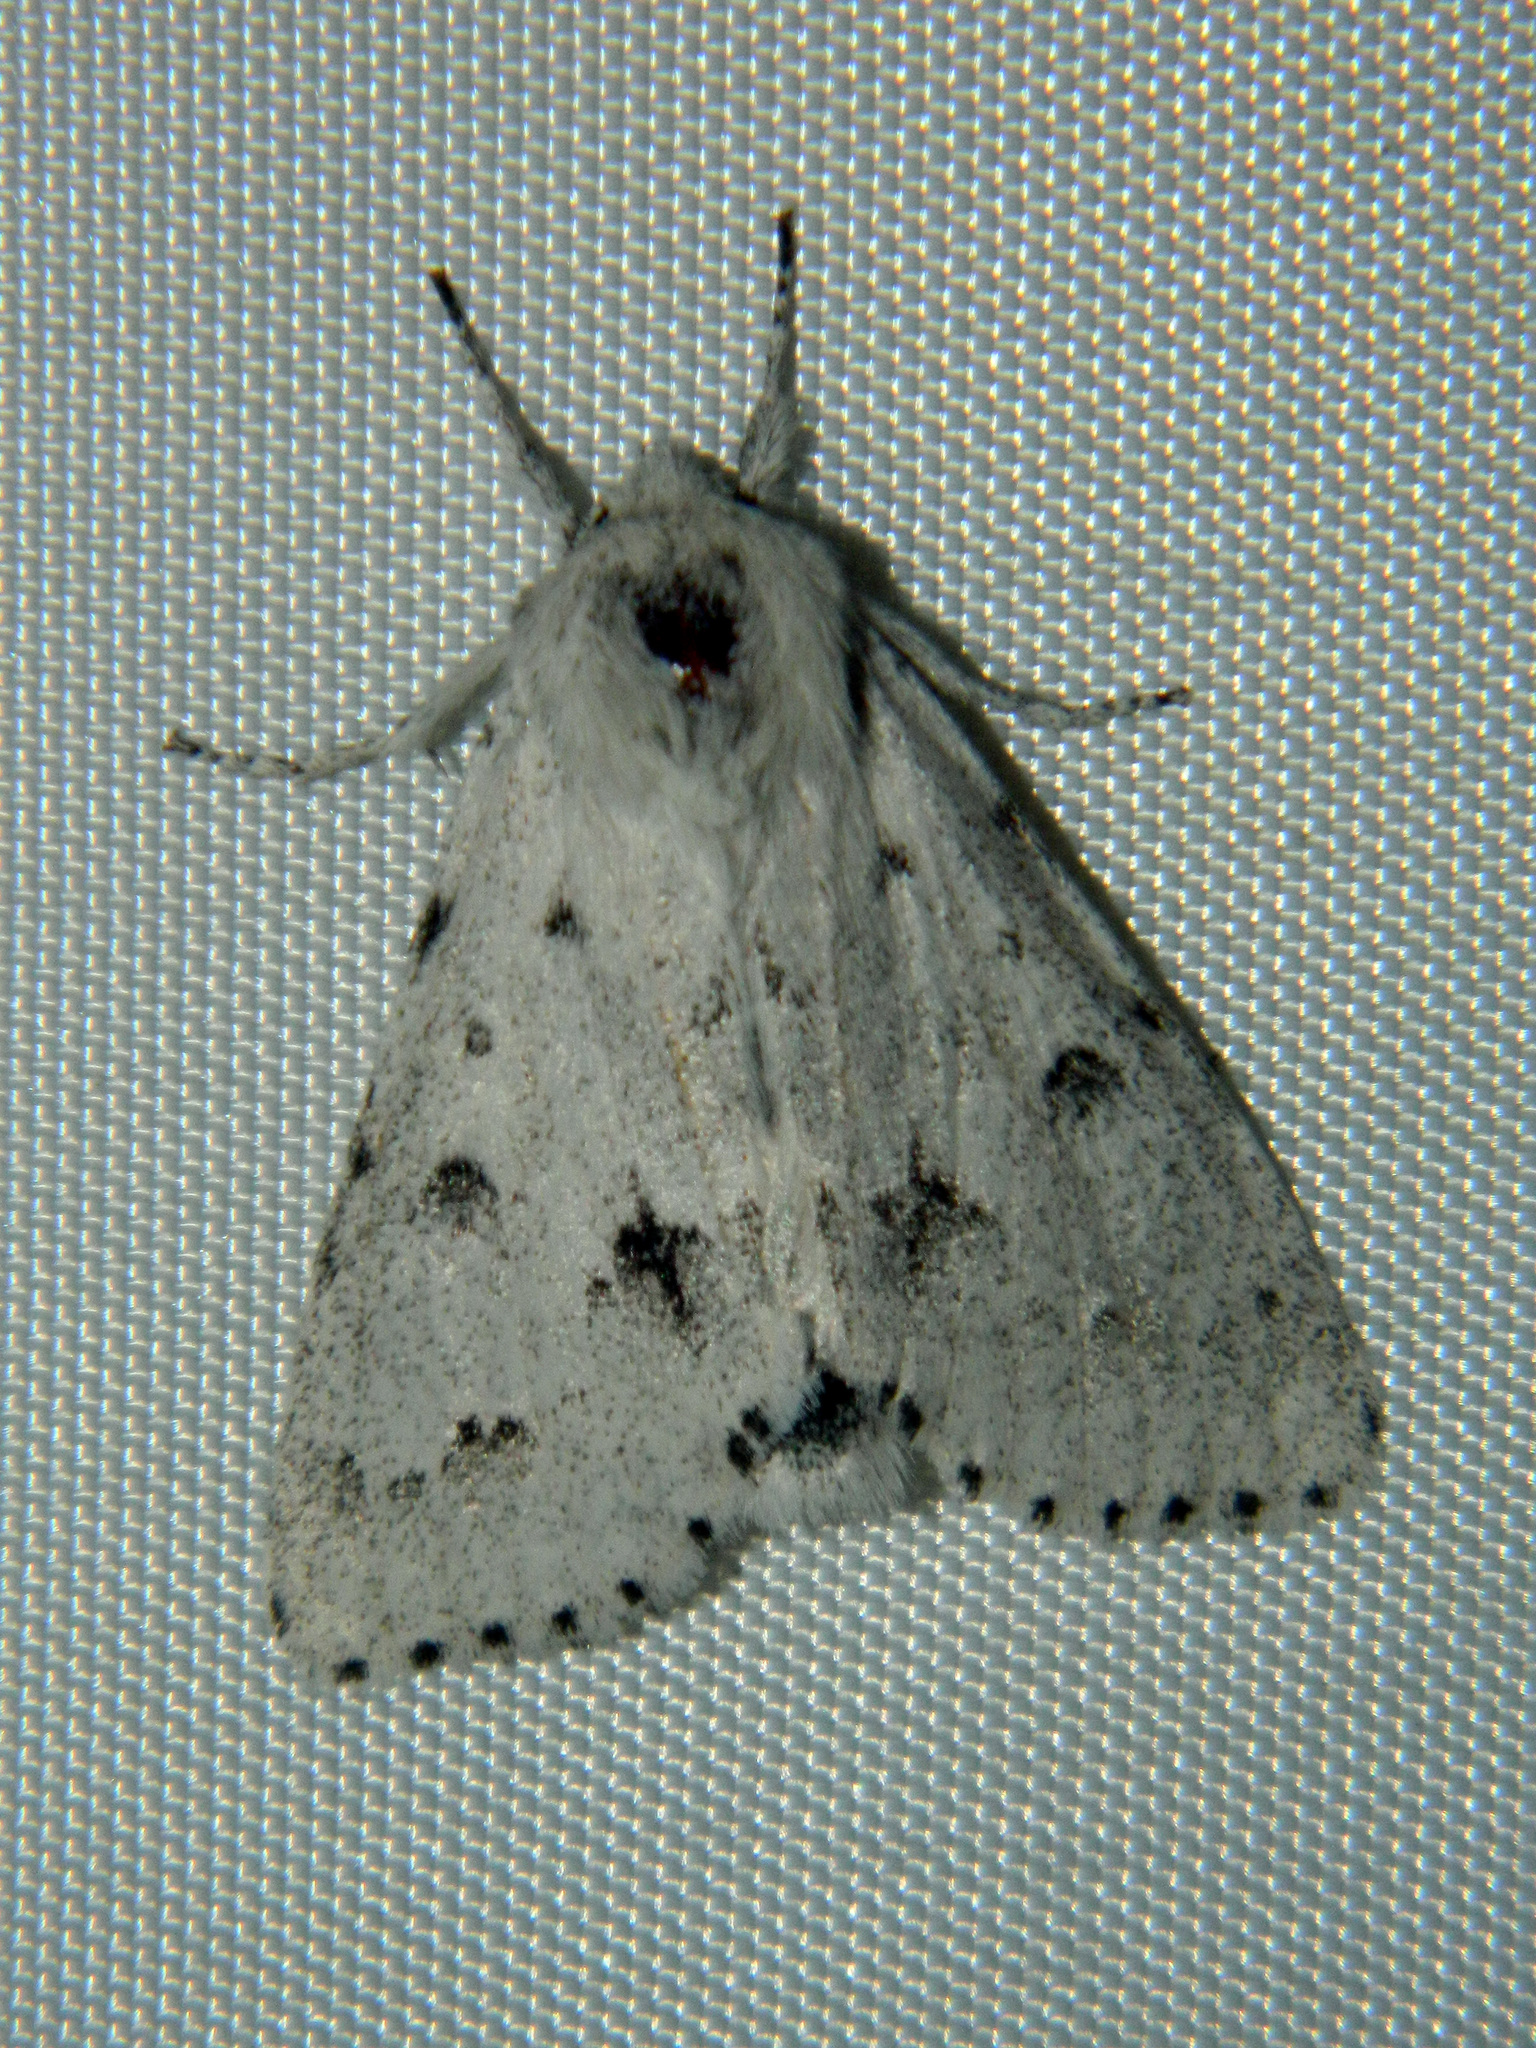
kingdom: Animalia
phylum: Arthropoda
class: Insecta
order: Lepidoptera
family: Noctuidae
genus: Acronicta
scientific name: Acronicta vulpina
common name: Miller dagger
